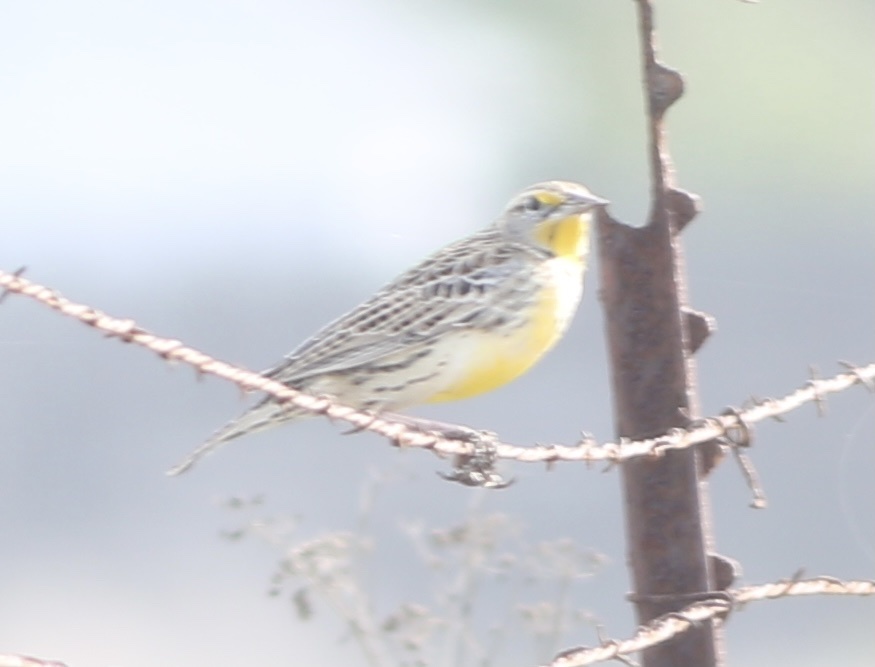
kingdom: Animalia
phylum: Chordata
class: Aves
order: Passeriformes
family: Icteridae
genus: Sturnella
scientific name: Sturnella neglecta
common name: Western meadowlark
